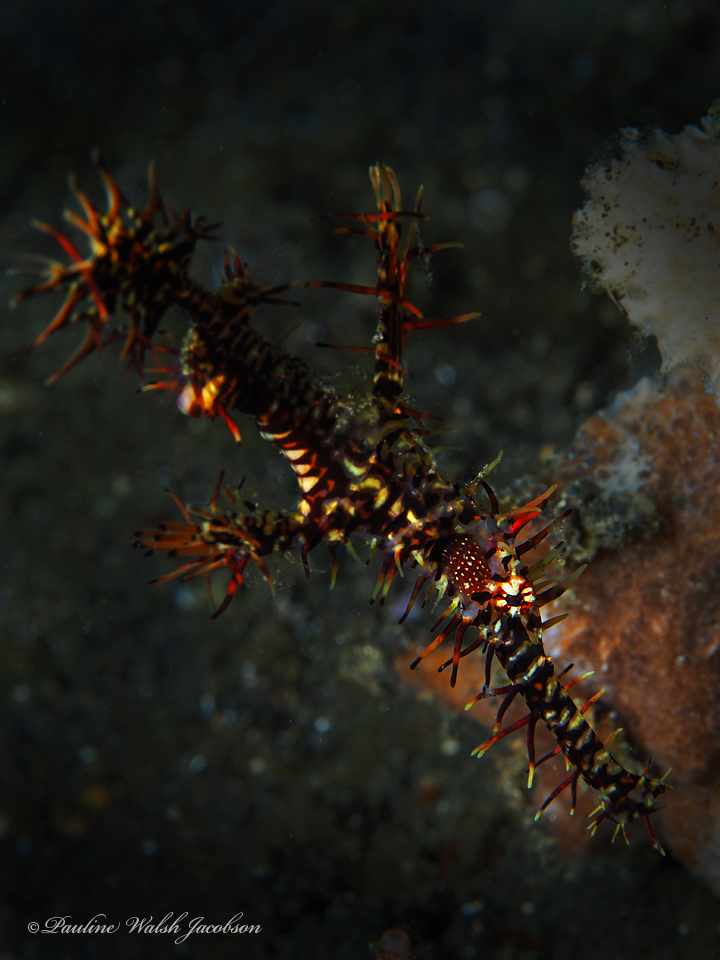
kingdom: Animalia
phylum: Chordata
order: Syngnathiformes
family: Solenostomidae
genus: Solenostomus
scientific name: Solenostomus paradoxus
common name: Ghost pipefish
